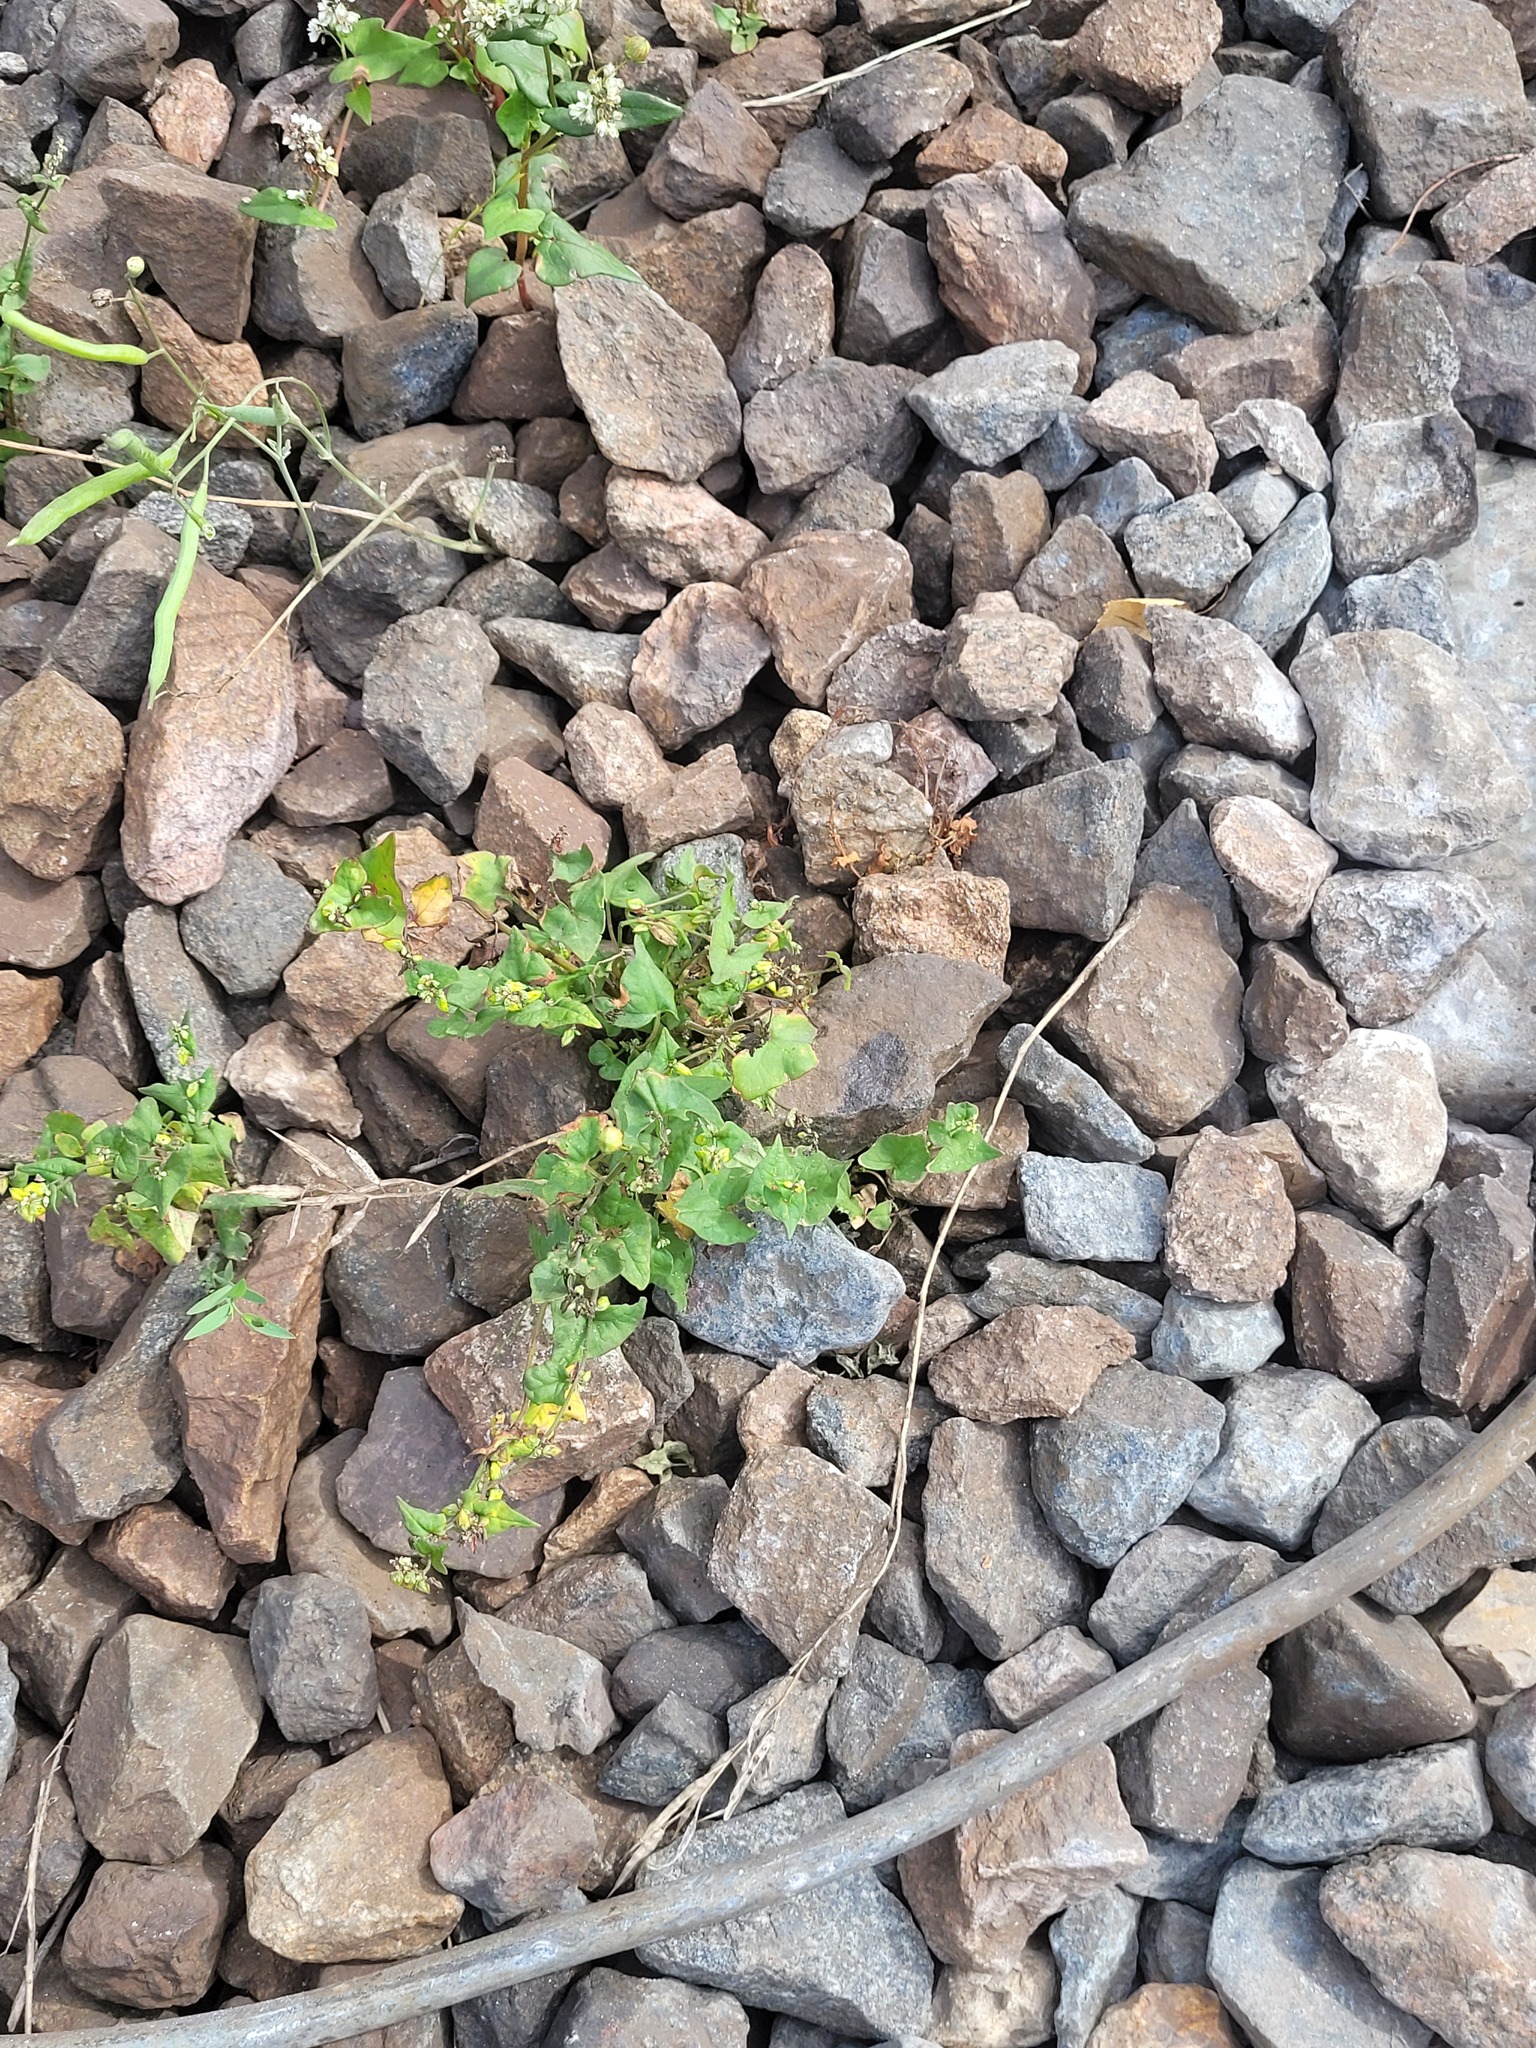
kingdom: Plantae
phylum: Tracheophyta
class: Magnoliopsida
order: Caryophyllales
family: Polygonaceae
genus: Fagopyrum
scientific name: Fagopyrum tataricum
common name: Green buckwheat
